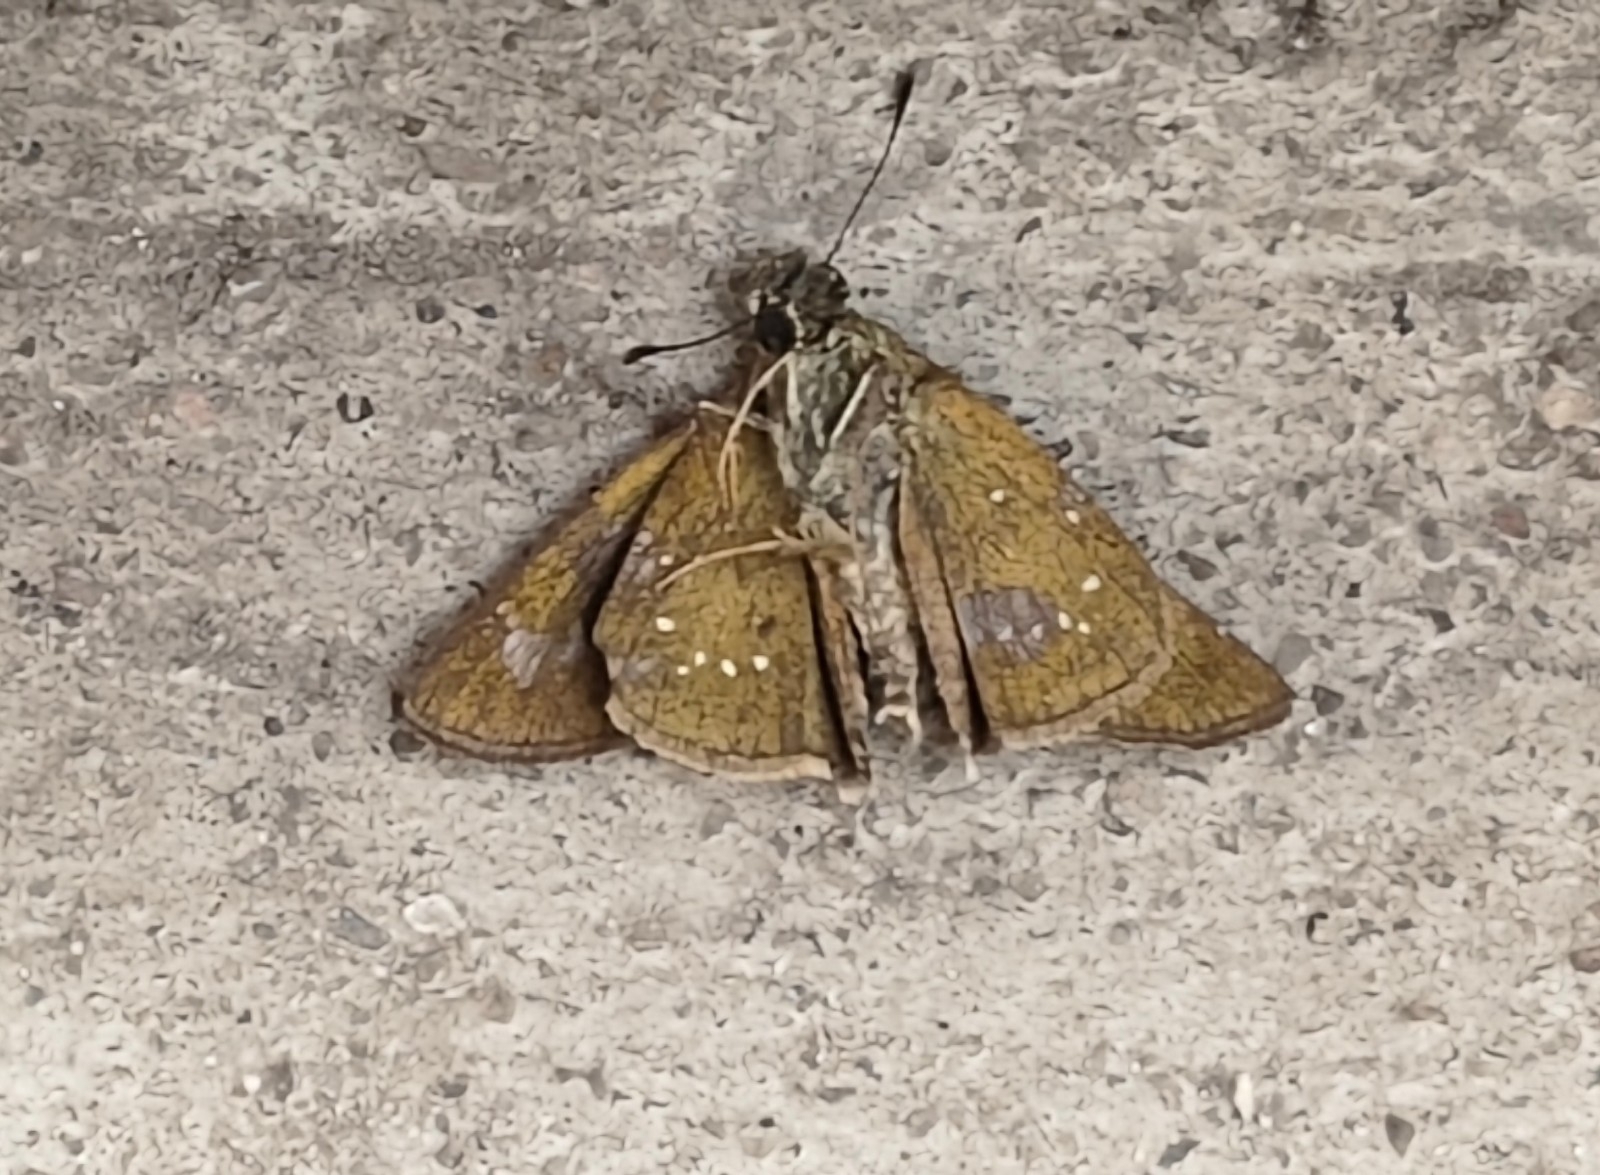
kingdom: Animalia
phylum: Arthropoda
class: Insecta
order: Lepidoptera
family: Hesperiidae
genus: Pelopidas
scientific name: Pelopidas agna
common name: Little branded swift
